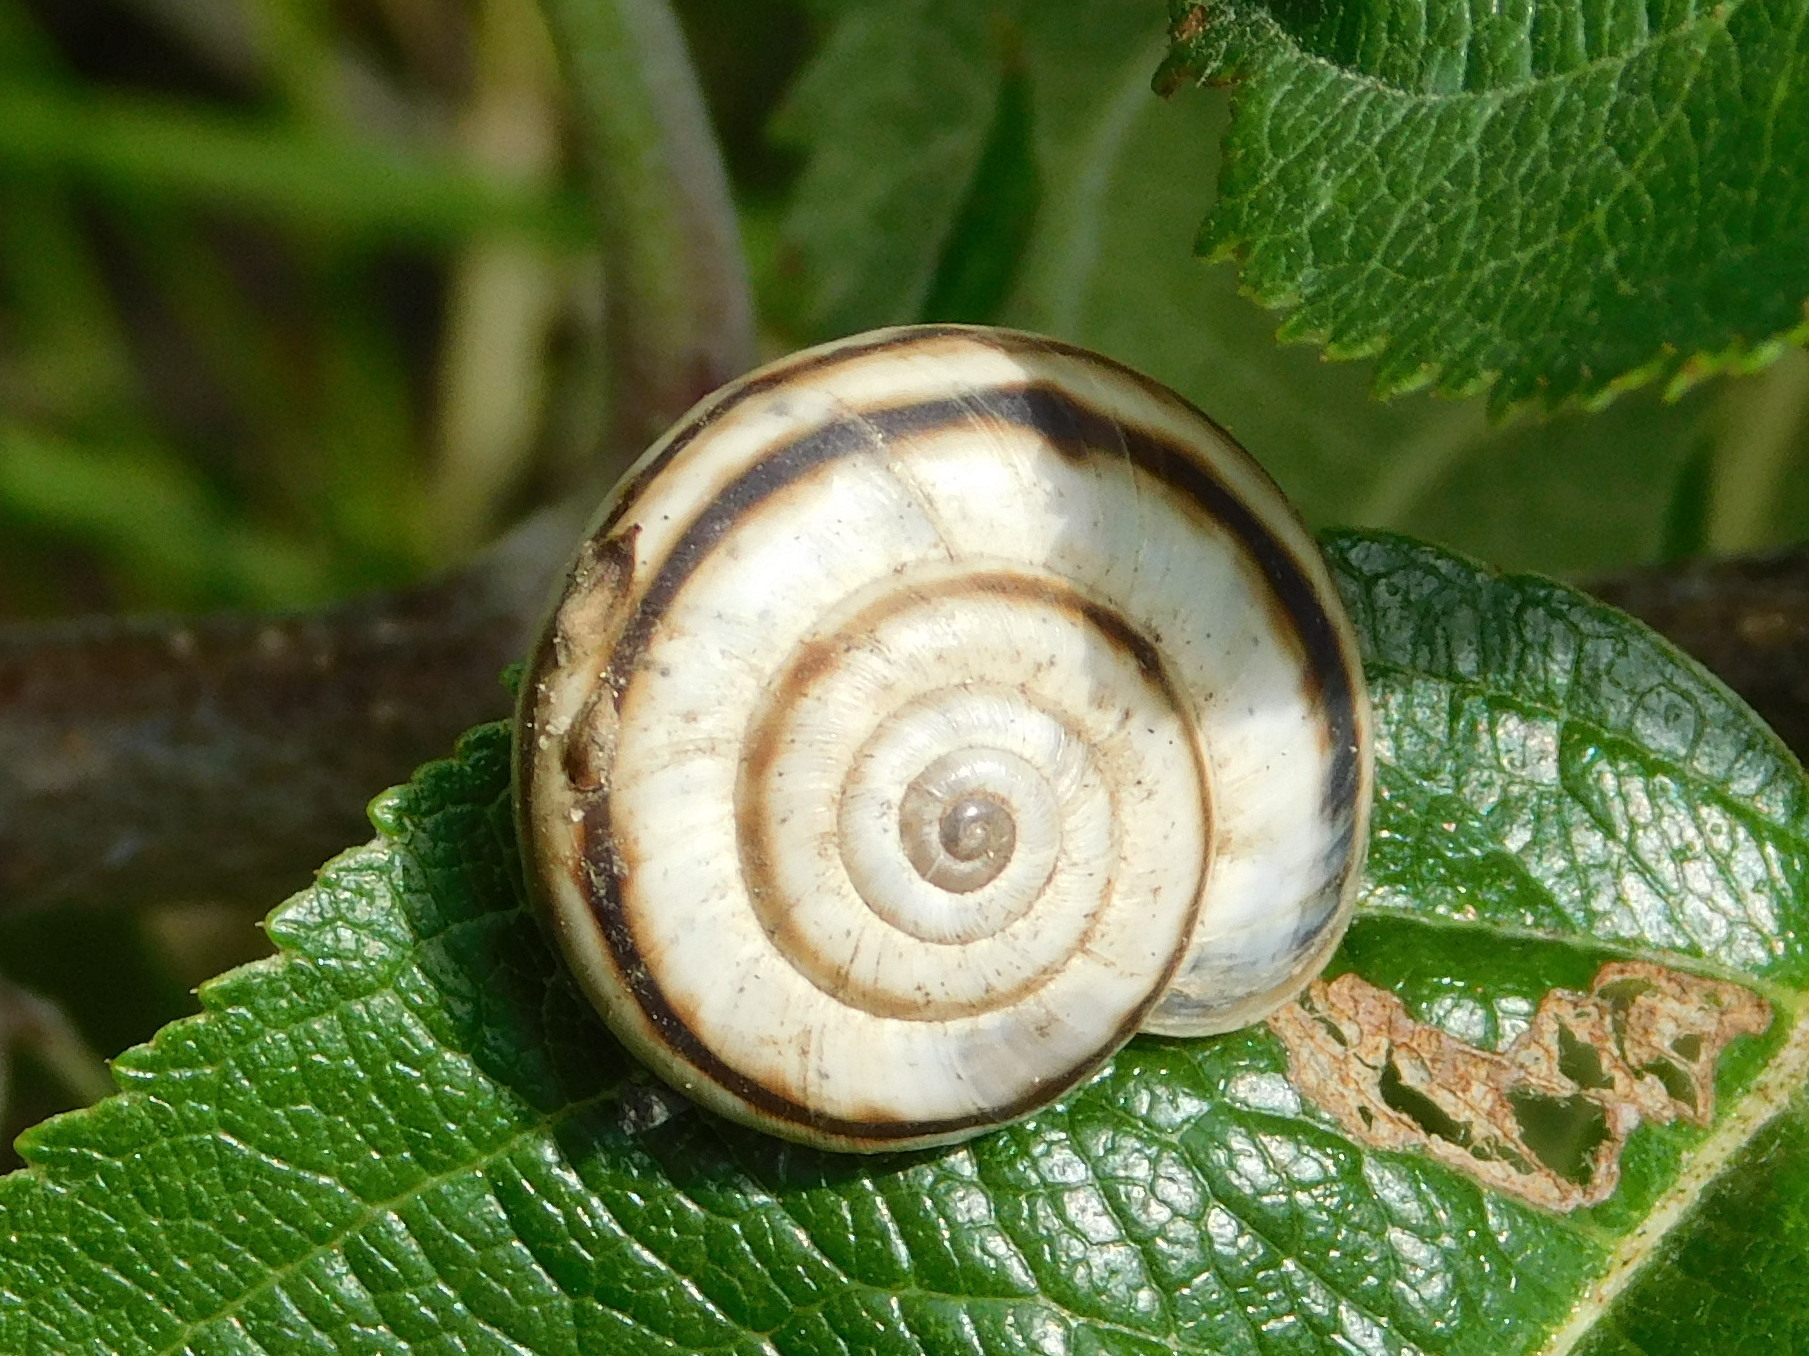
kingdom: Animalia
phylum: Mollusca
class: Gastropoda
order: Stylommatophora
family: Geomitridae
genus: Xerolenta
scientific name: Xerolenta obvia
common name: White heath snail
